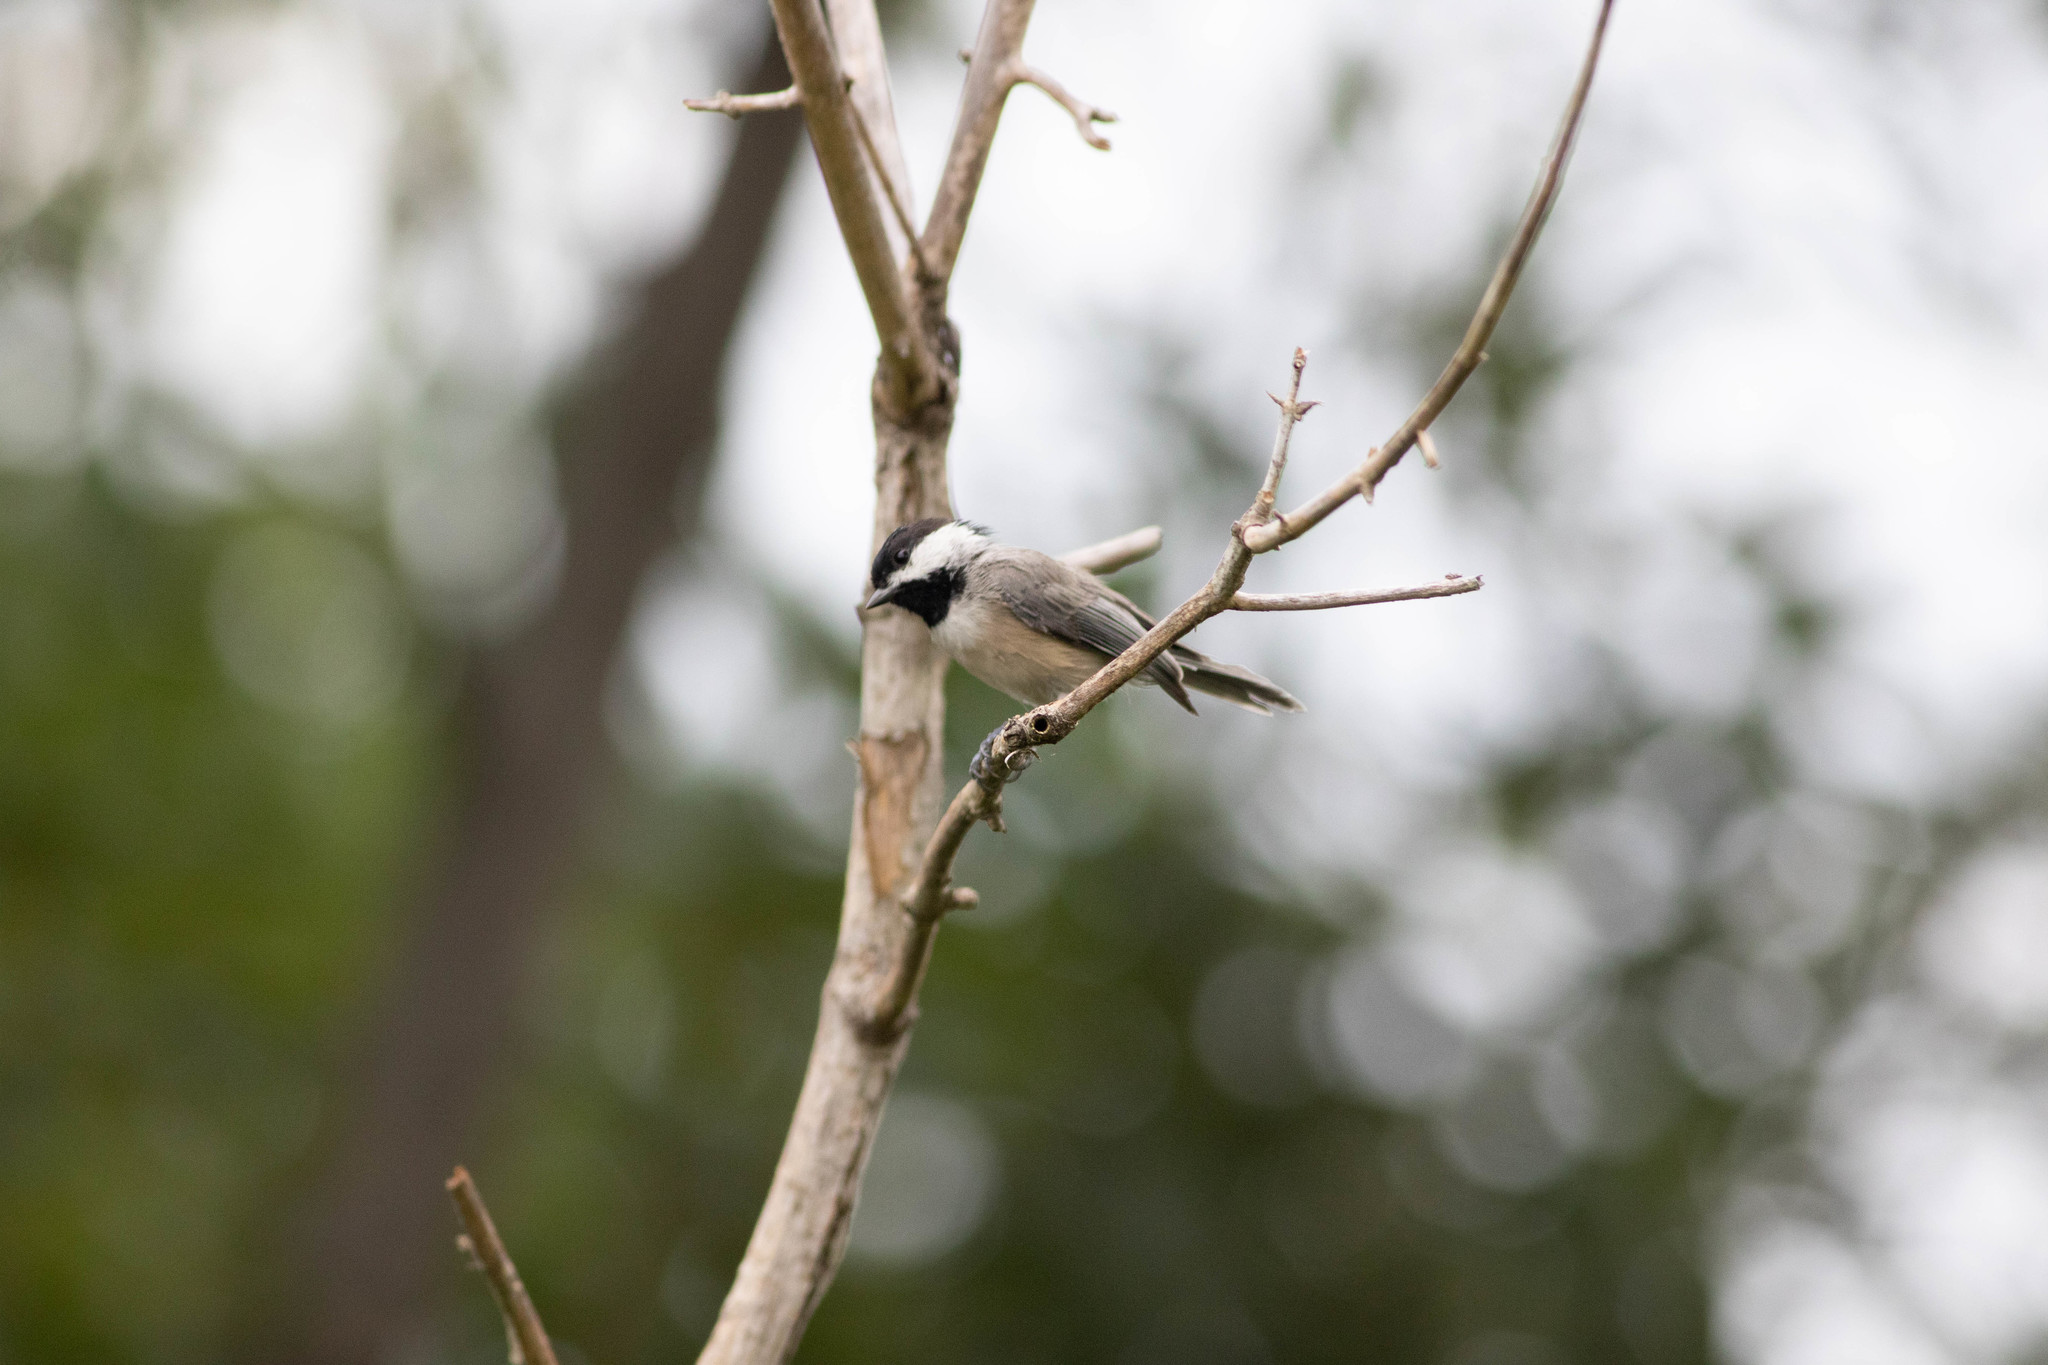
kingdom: Animalia
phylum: Chordata
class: Aves
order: Passeriformes
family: Paridae
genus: Poecile
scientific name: Poecile carolinensis
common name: Carolina chickadee
